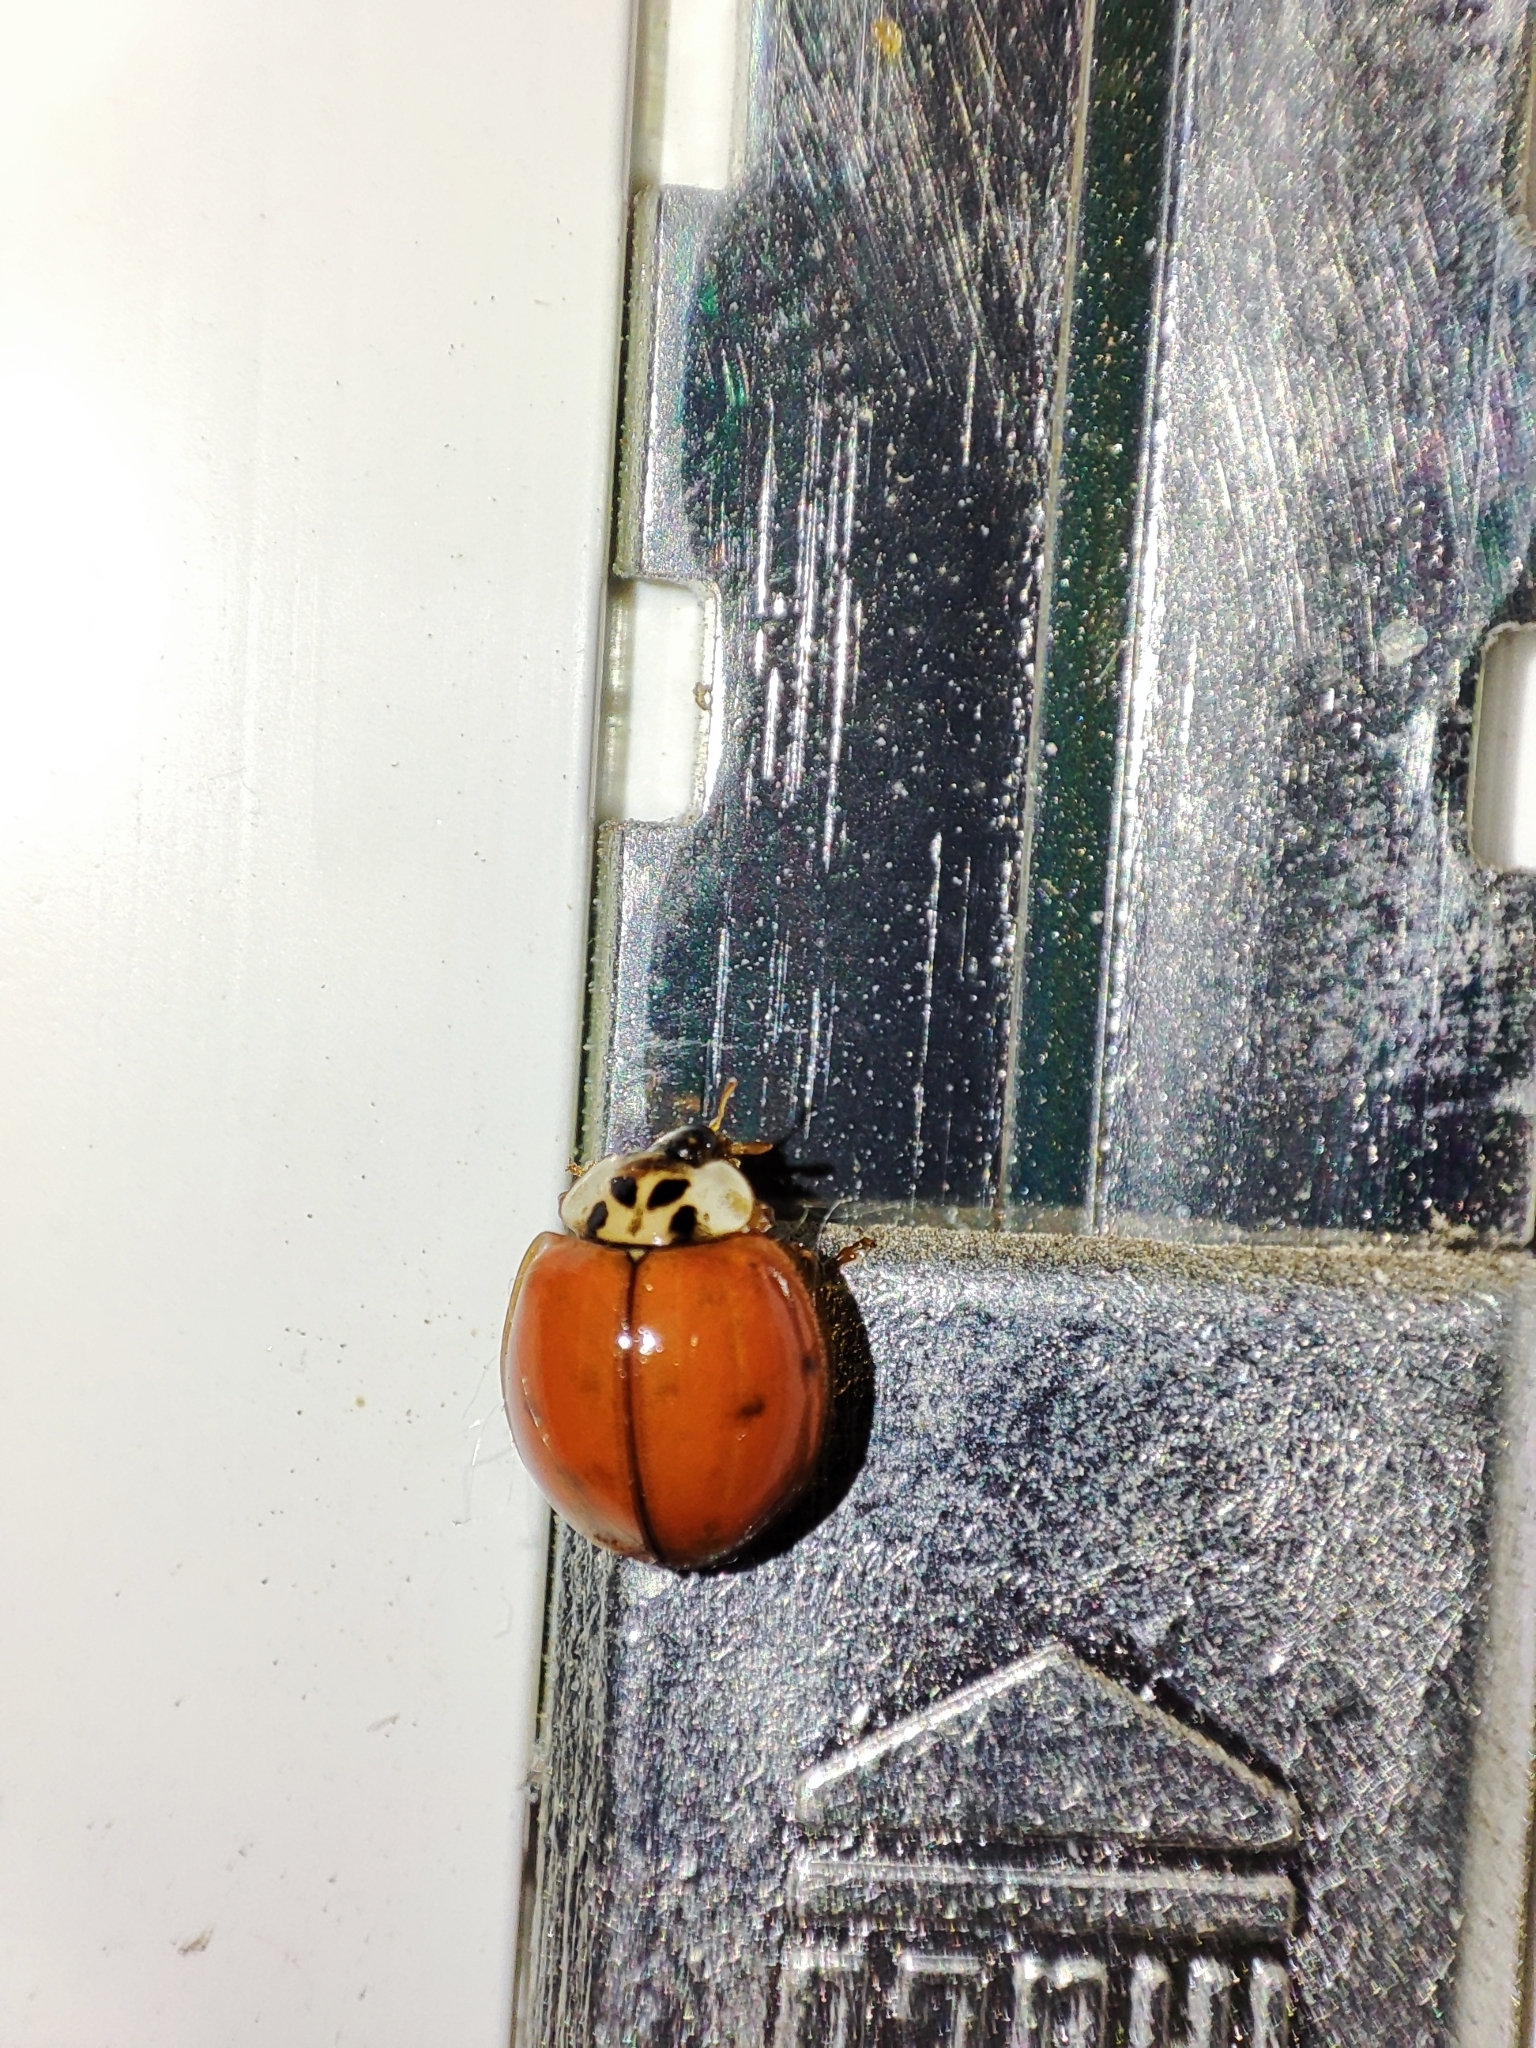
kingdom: Animalia
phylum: Arthropoda
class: Insecta
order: Coleoptera
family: Coccinellidae
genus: Harmonia
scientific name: Harmonia axyridis
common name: Harlequin ladybird
